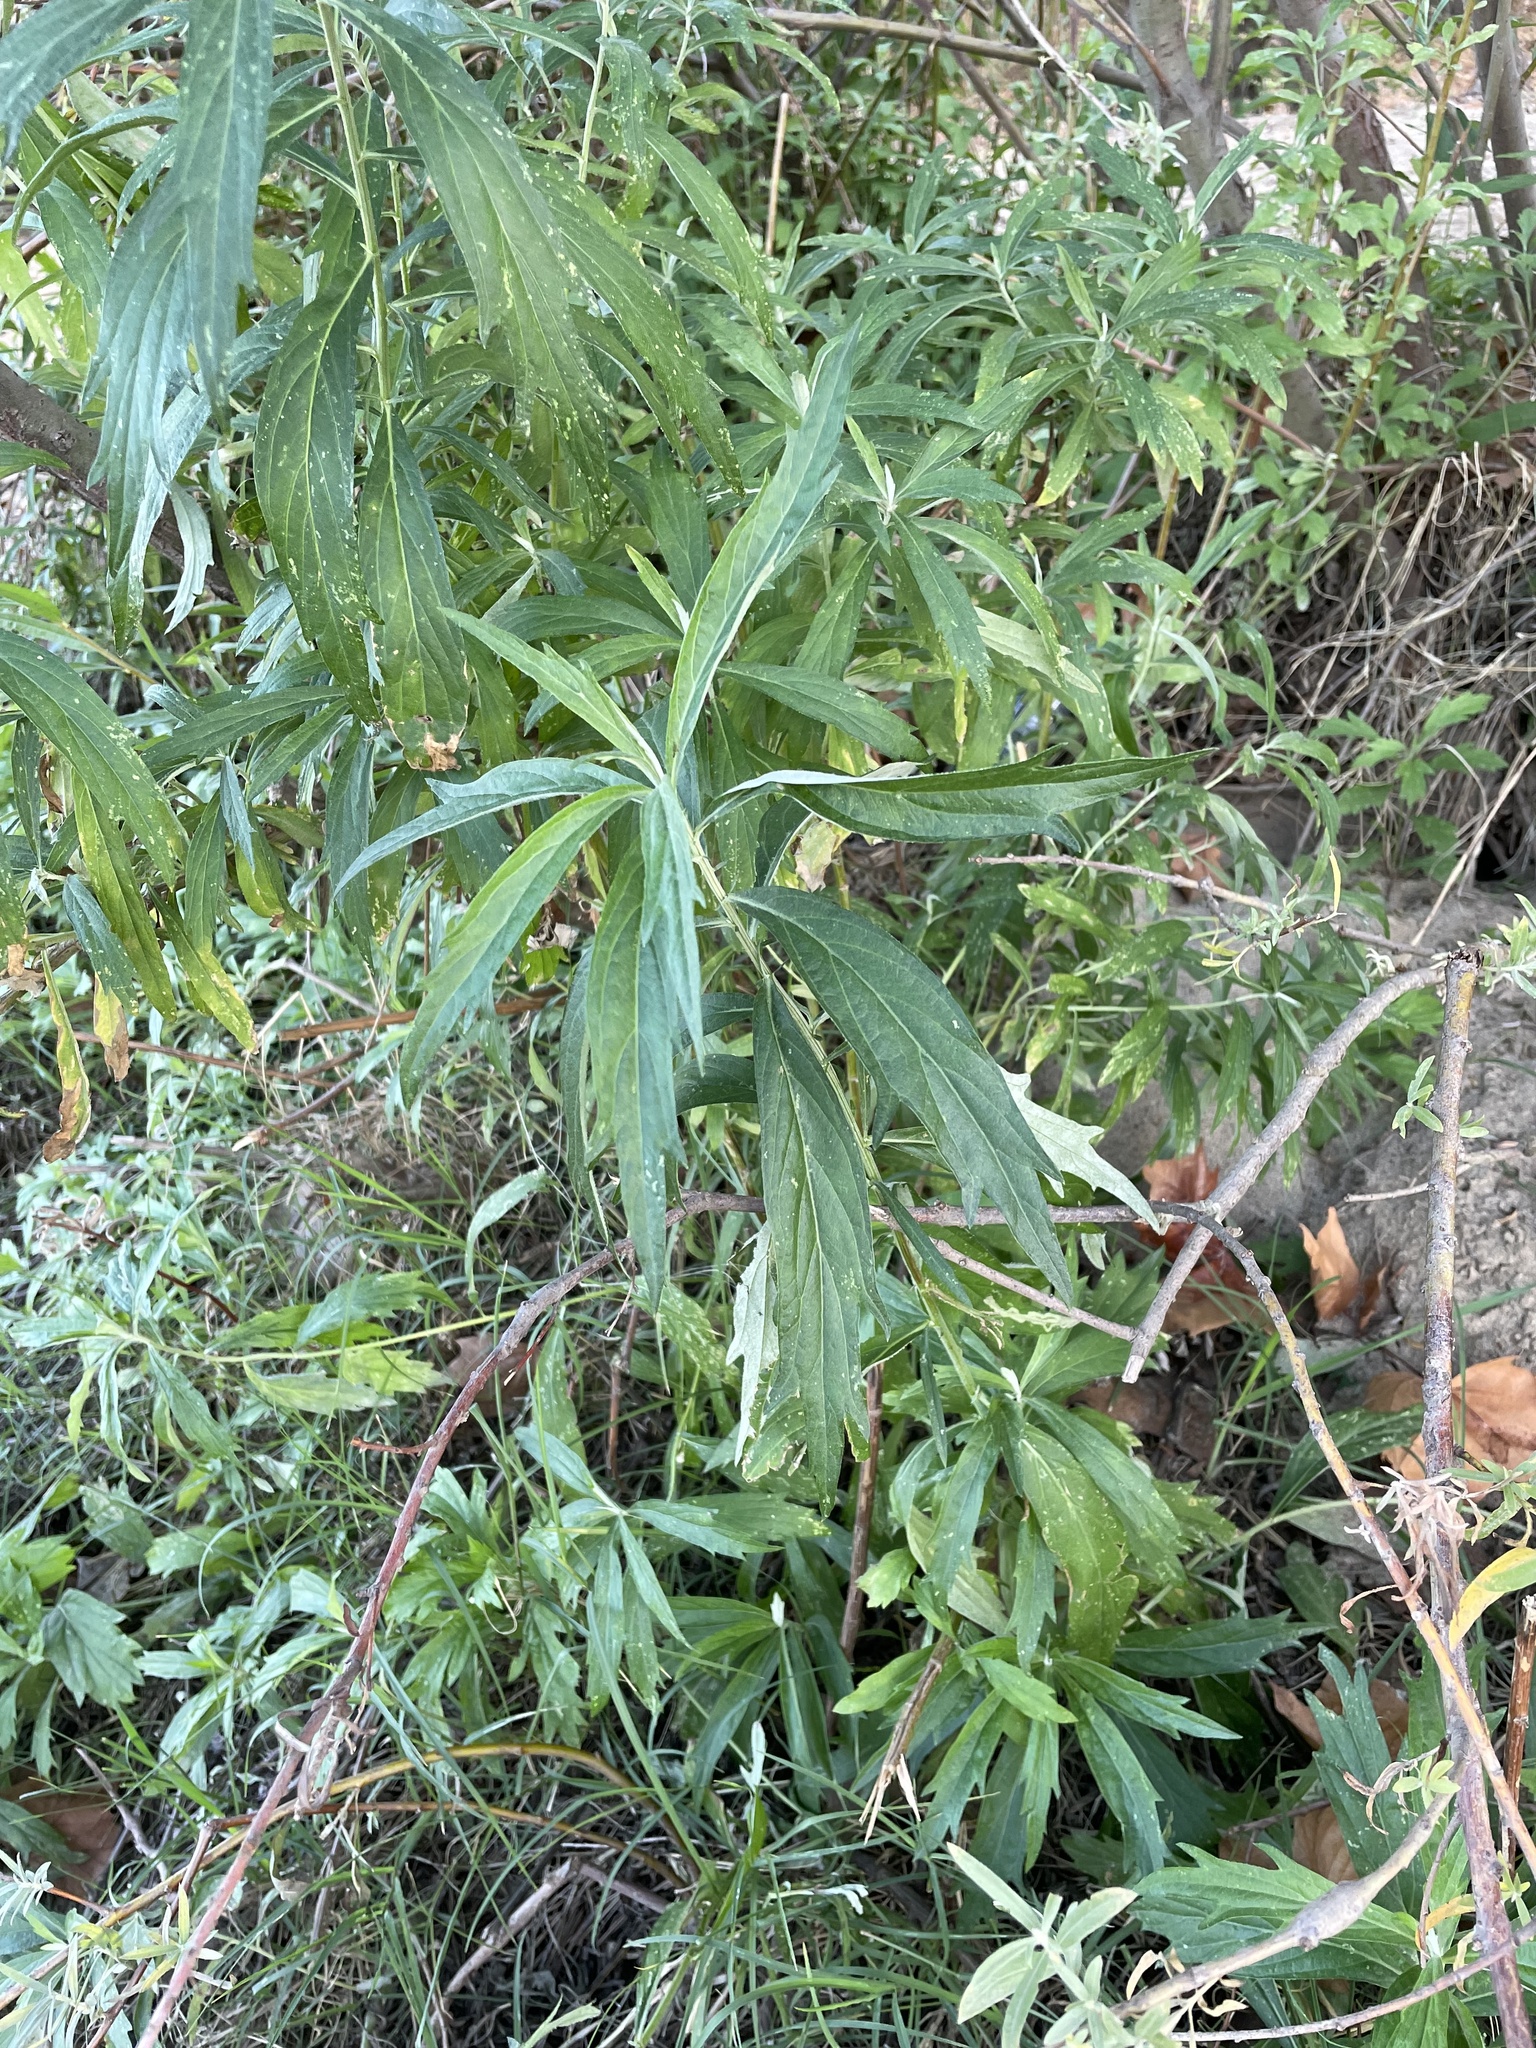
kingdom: Plantae
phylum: Tracheophyta
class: Magnoliopsida
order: Asterales
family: Asteraceae
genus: Artemisia
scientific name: Artemisia douglasiana
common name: Northwest mugwort
